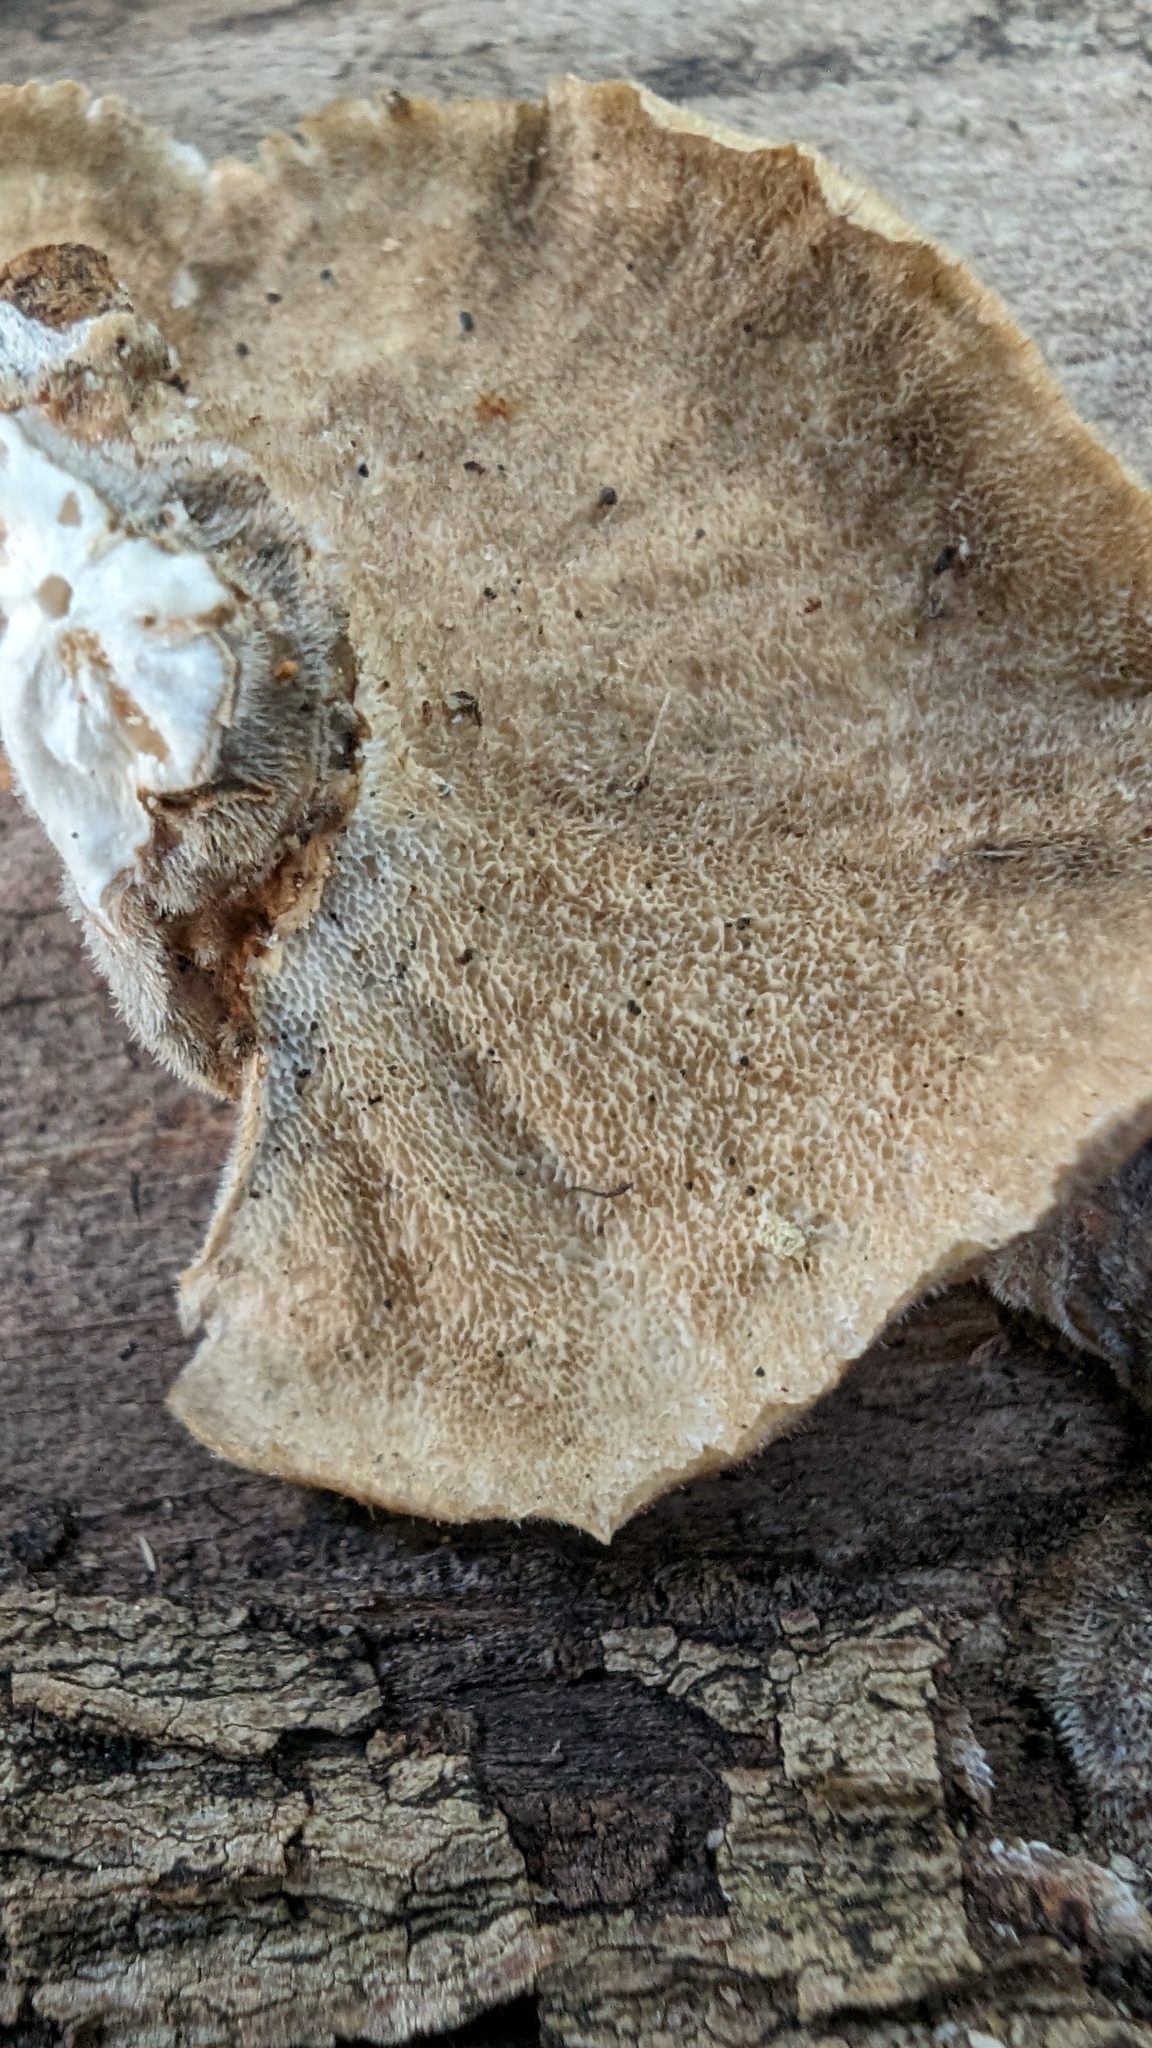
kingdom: Fungi
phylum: Basidiomycota
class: Agaricomycetes
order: Polyporales
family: Polyporaceae
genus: Trametes
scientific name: Trametes versicolor
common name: Turkeytail
